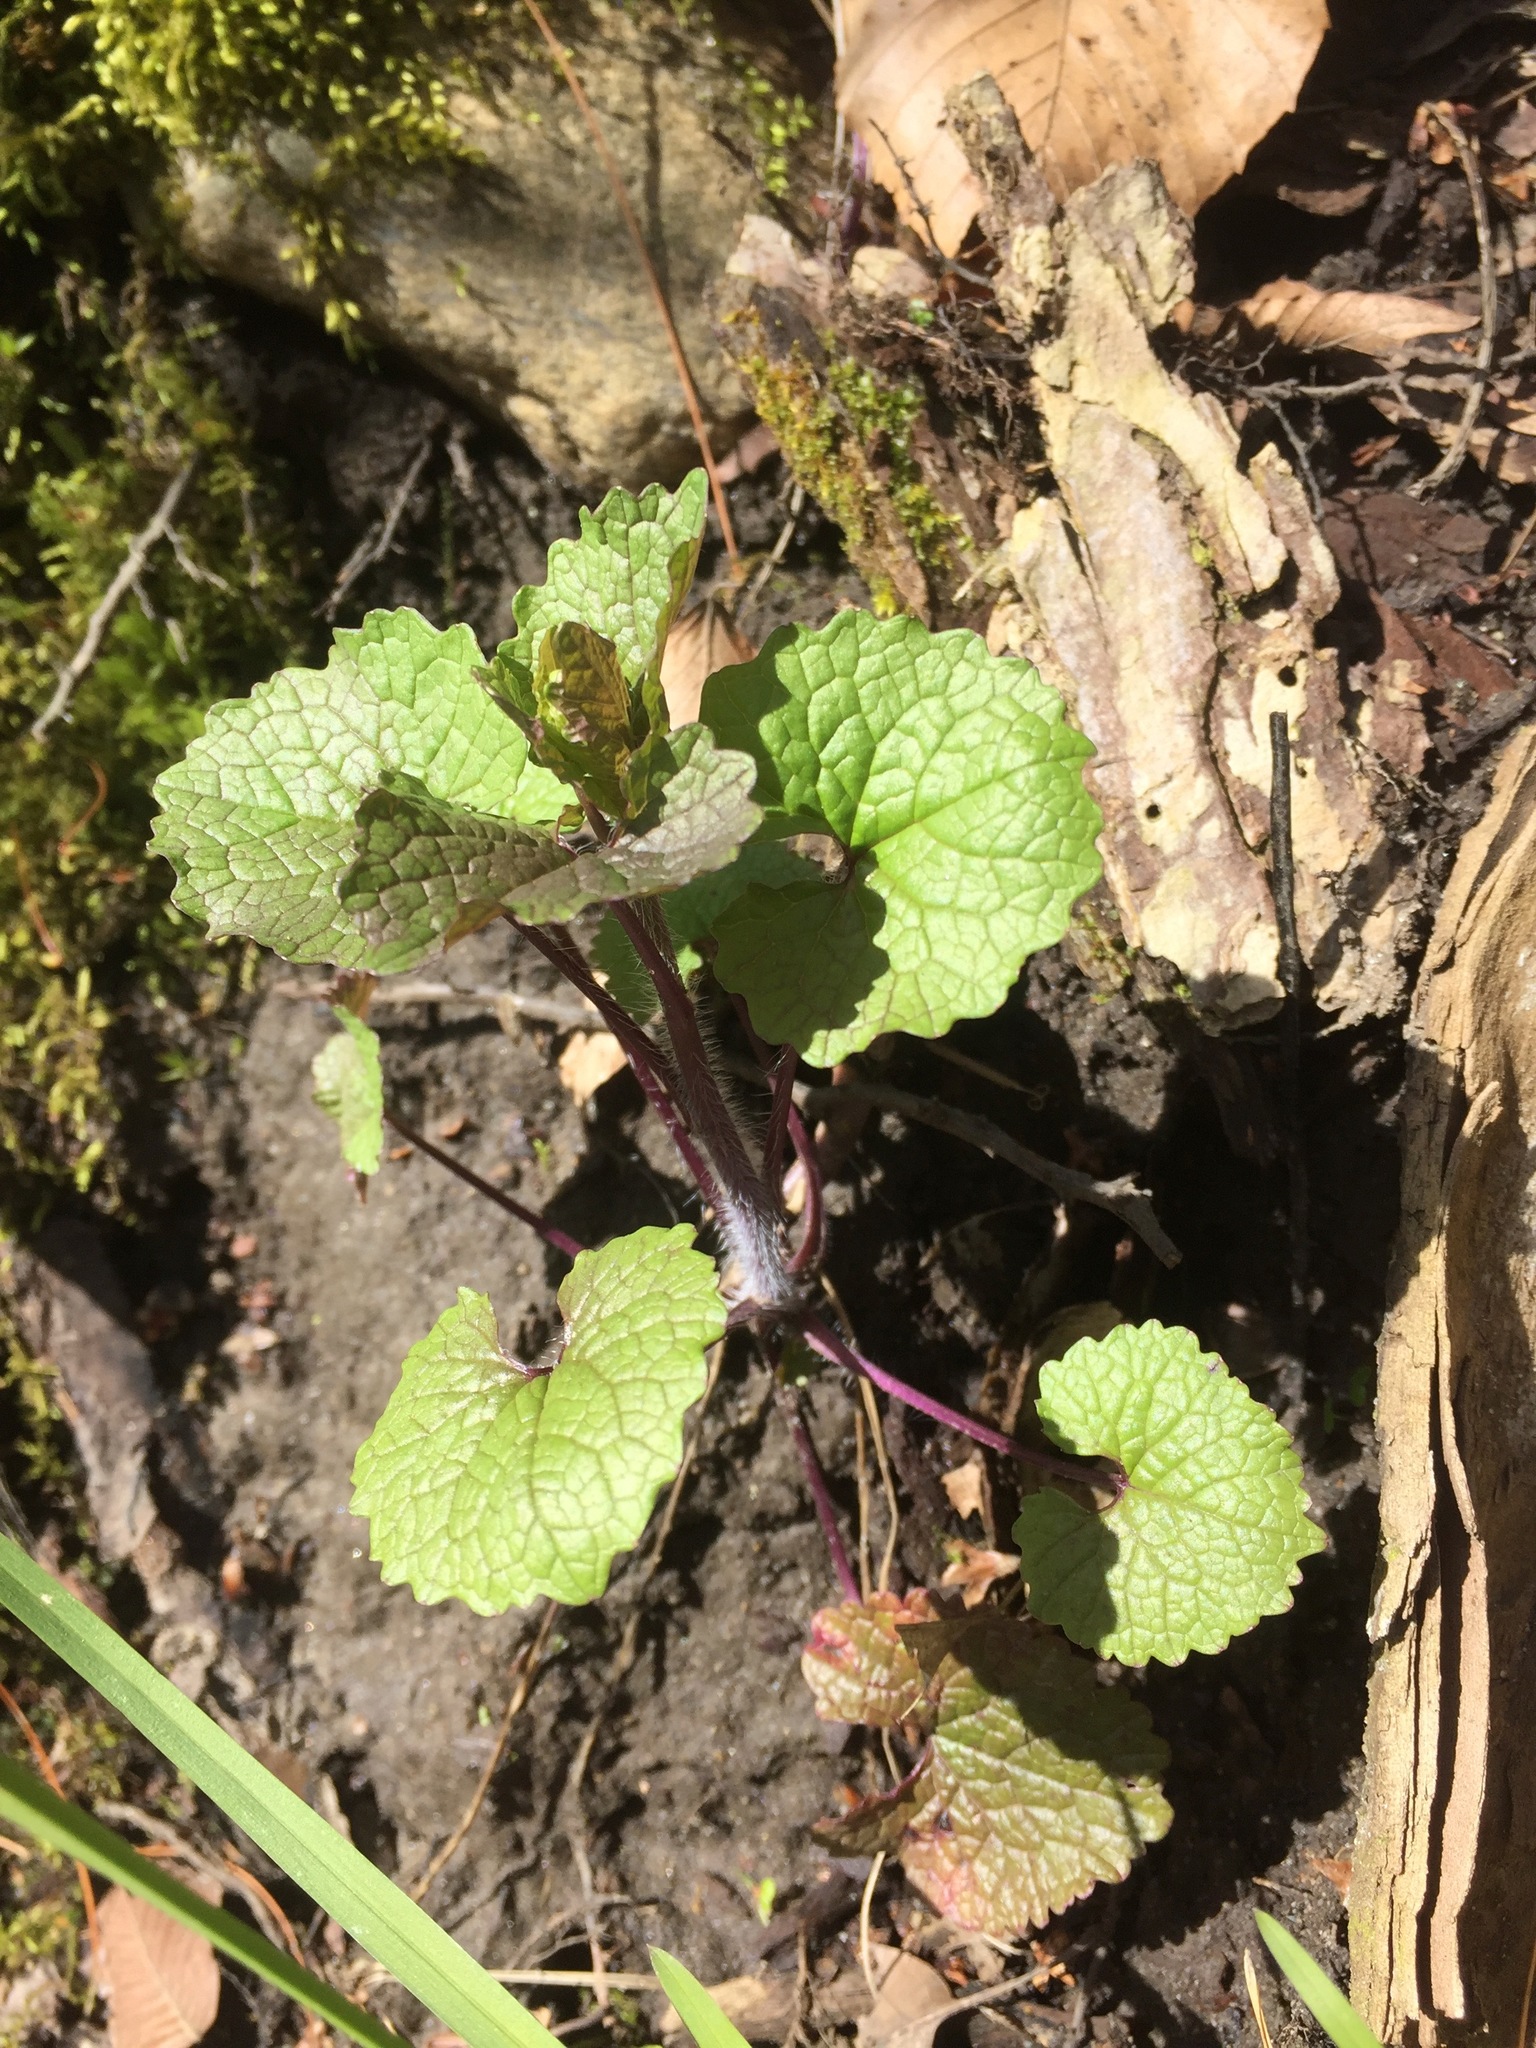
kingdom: Plantae
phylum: Tracheophyta
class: Magnoliopsida
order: Brassicales
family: Brassicaceae
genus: Alliaria
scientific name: Alliaria petiolata
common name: Garlic mustard
